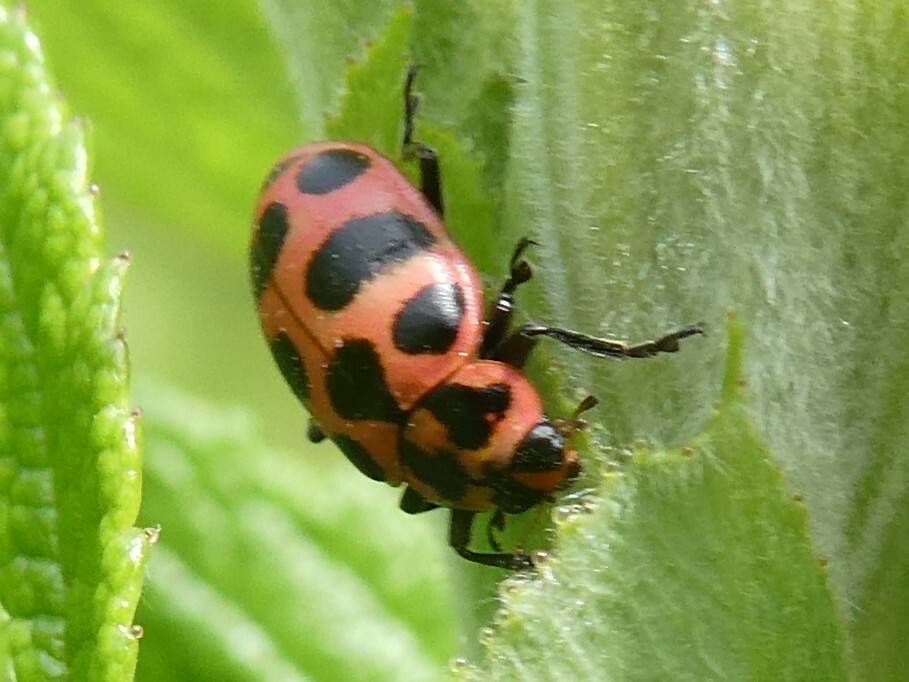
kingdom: Animalia
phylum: Arthropoda
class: Insecta
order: Coleoptera
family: Coccinellidae
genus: Coleomegilla
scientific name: Coleomegilla maculata
